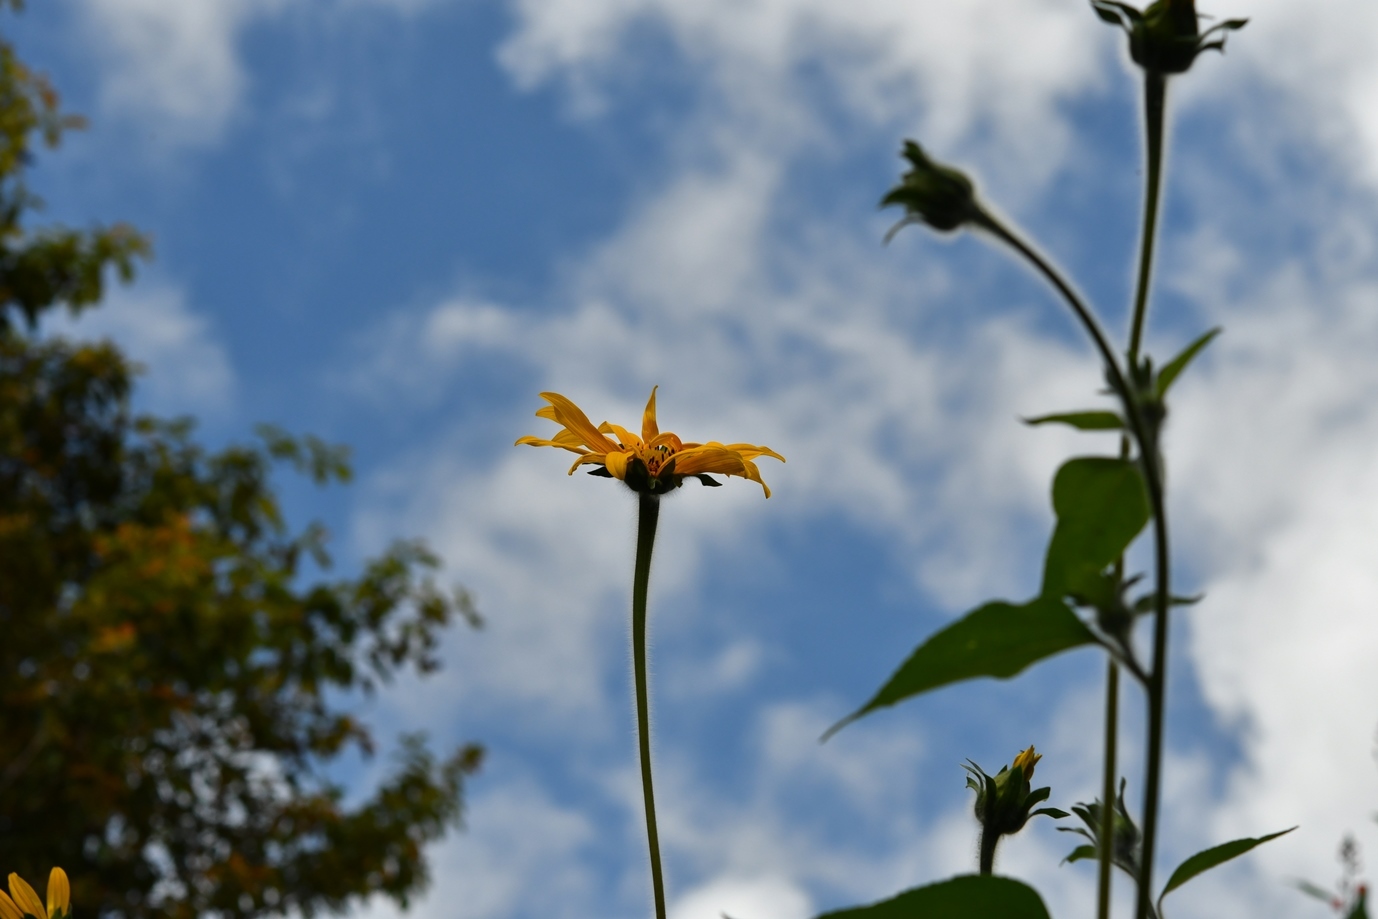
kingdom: Plantae
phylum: Tracheophyta
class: Magnoliopsida
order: Asterales
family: Asteraceae
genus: Tithonia
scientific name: Tithonia tubaeformis
